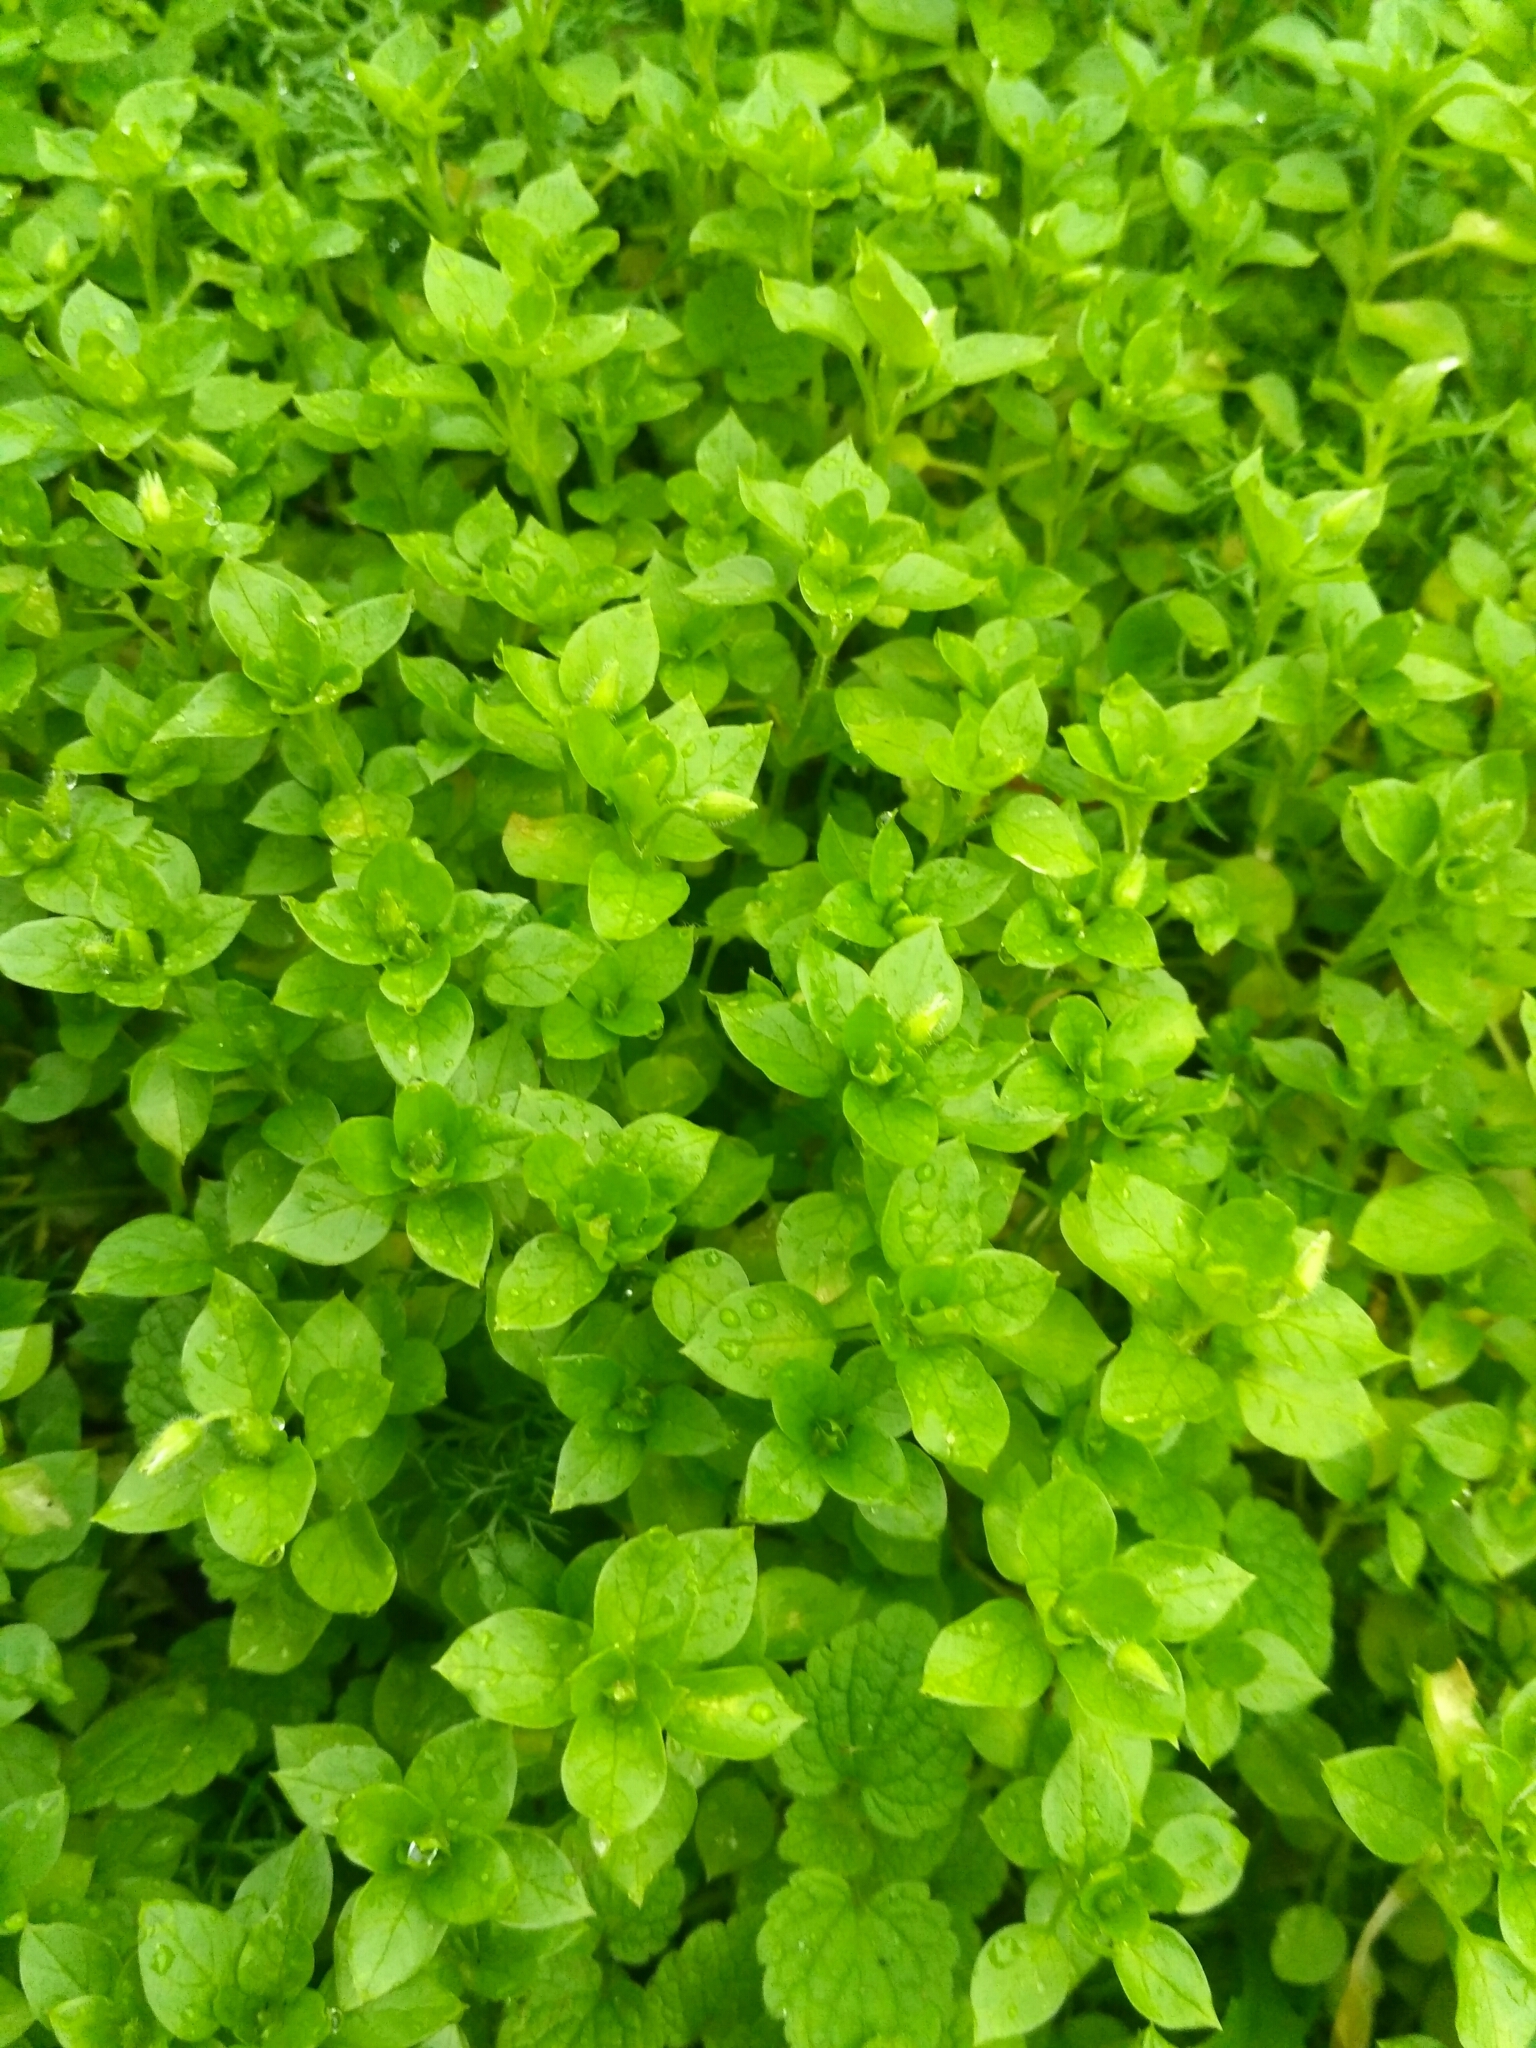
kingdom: Plantae
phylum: Tracheophyta
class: Magnoliopsida
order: Caryophyllales
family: Caryophyllaceae
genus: Stellaria
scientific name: Stellaria media
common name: Common chickweed
